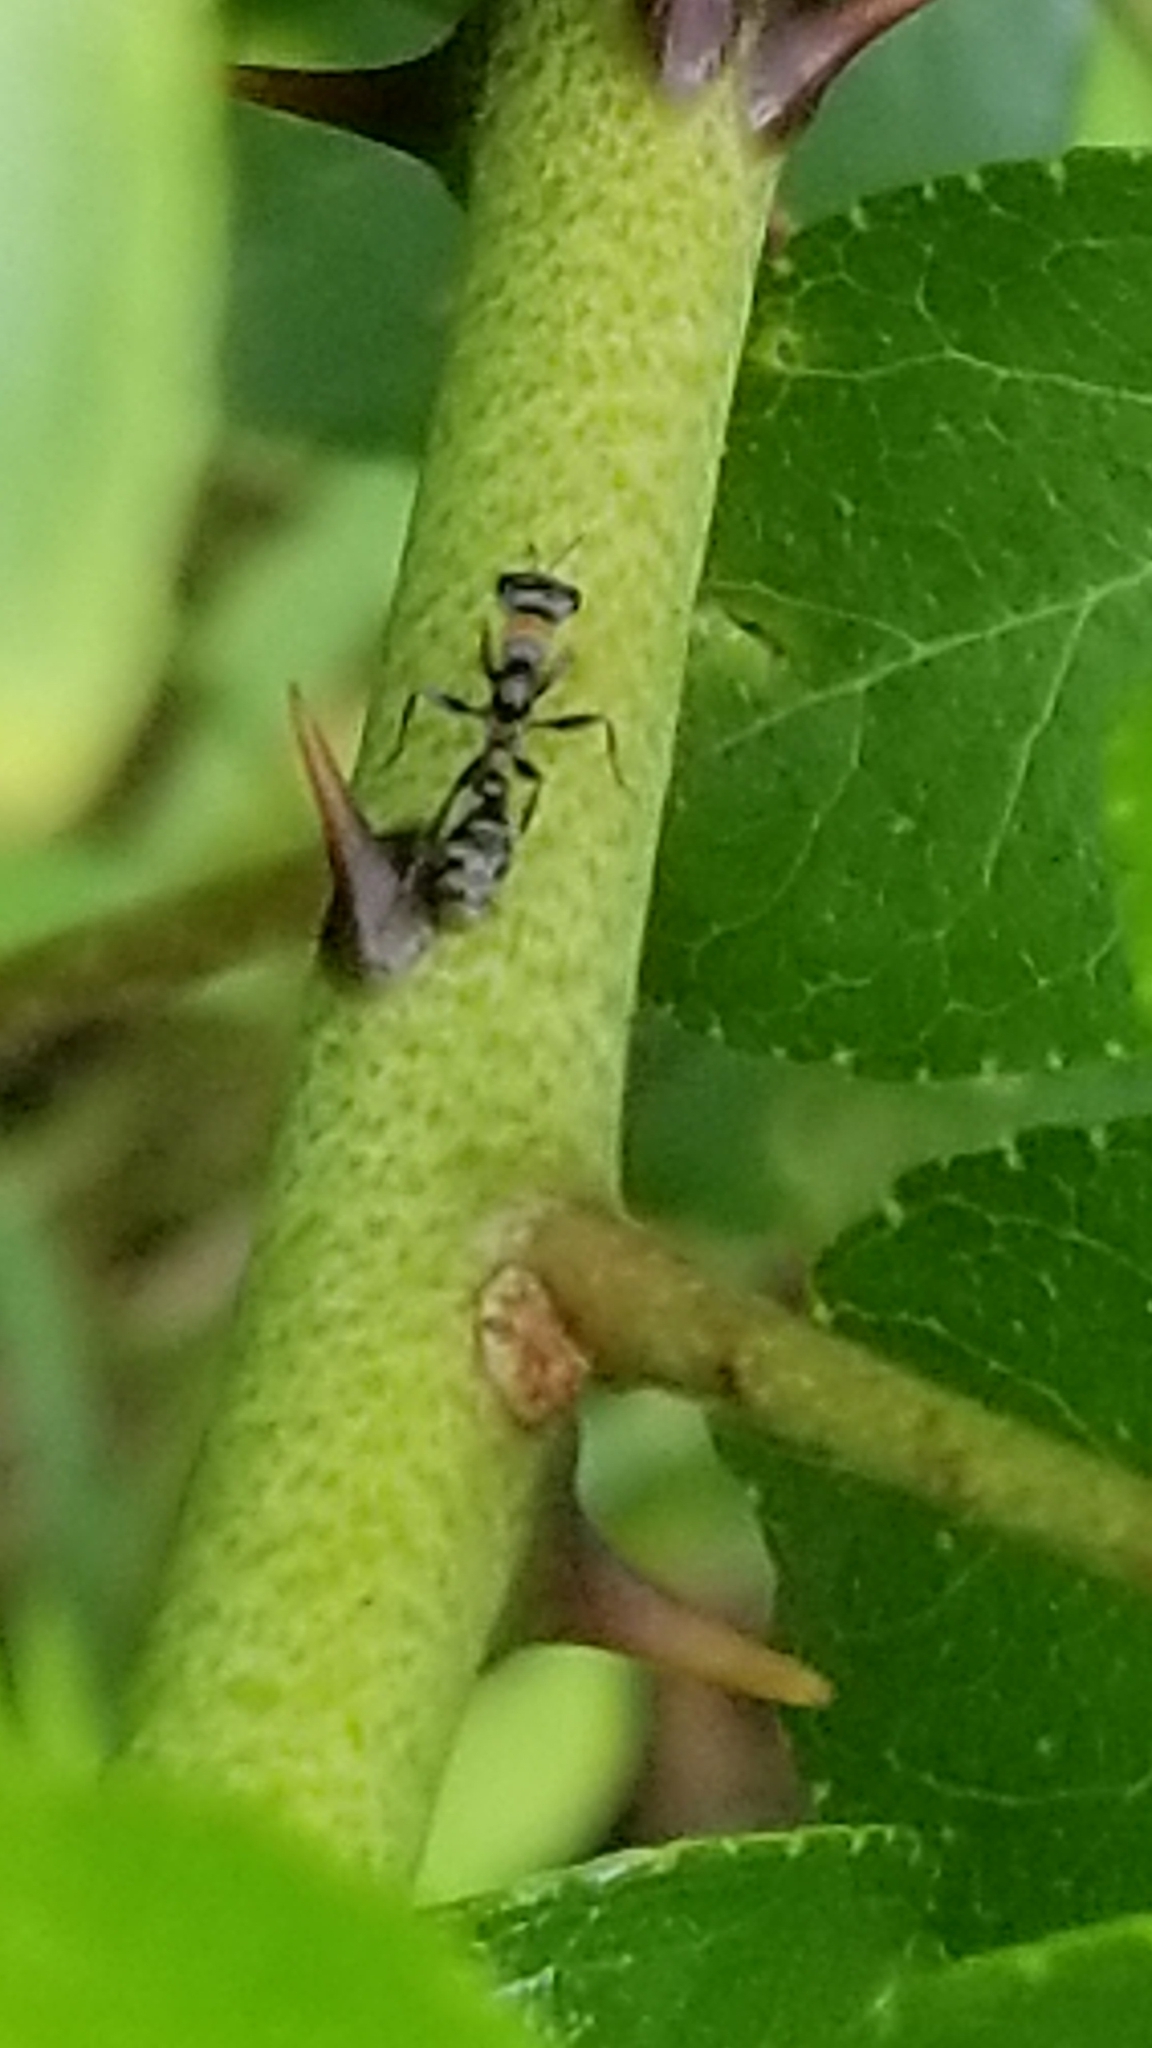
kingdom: Animalia
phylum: Arthropoda
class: Insecta
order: Hymenoptera
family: Formicidae
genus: Pseudomyrmex
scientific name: Pseudomyrmex gracilis
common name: Graceful twig ant
